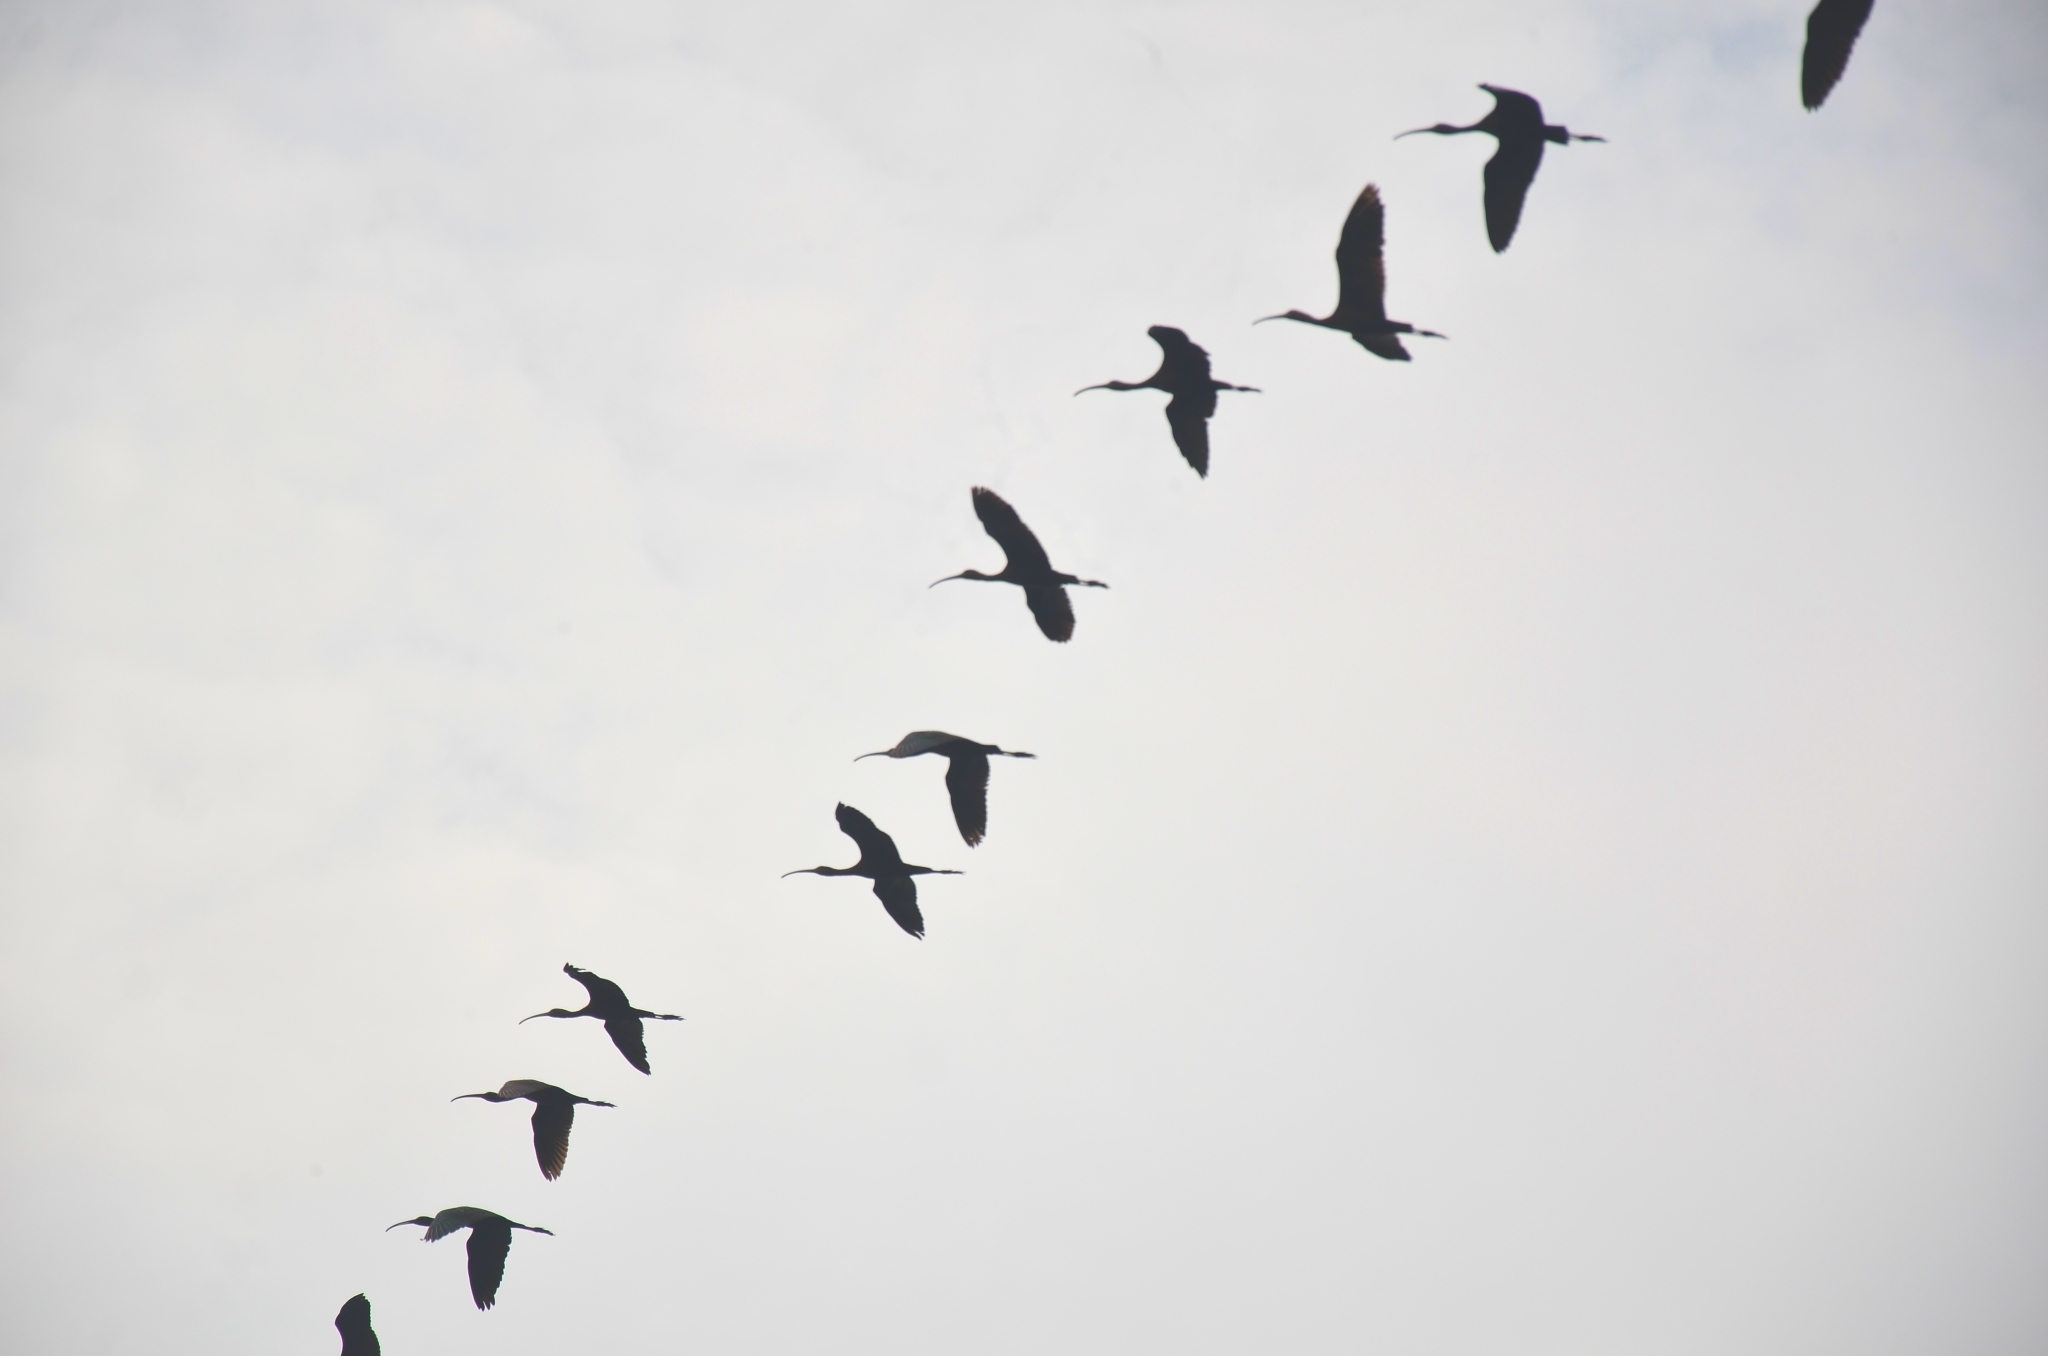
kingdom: Animalia
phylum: Chordata
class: Aves
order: Pelecaniformes
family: Threskiornithidae
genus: Plegadis
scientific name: Plegadis falcinellus
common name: Glossy ibis
